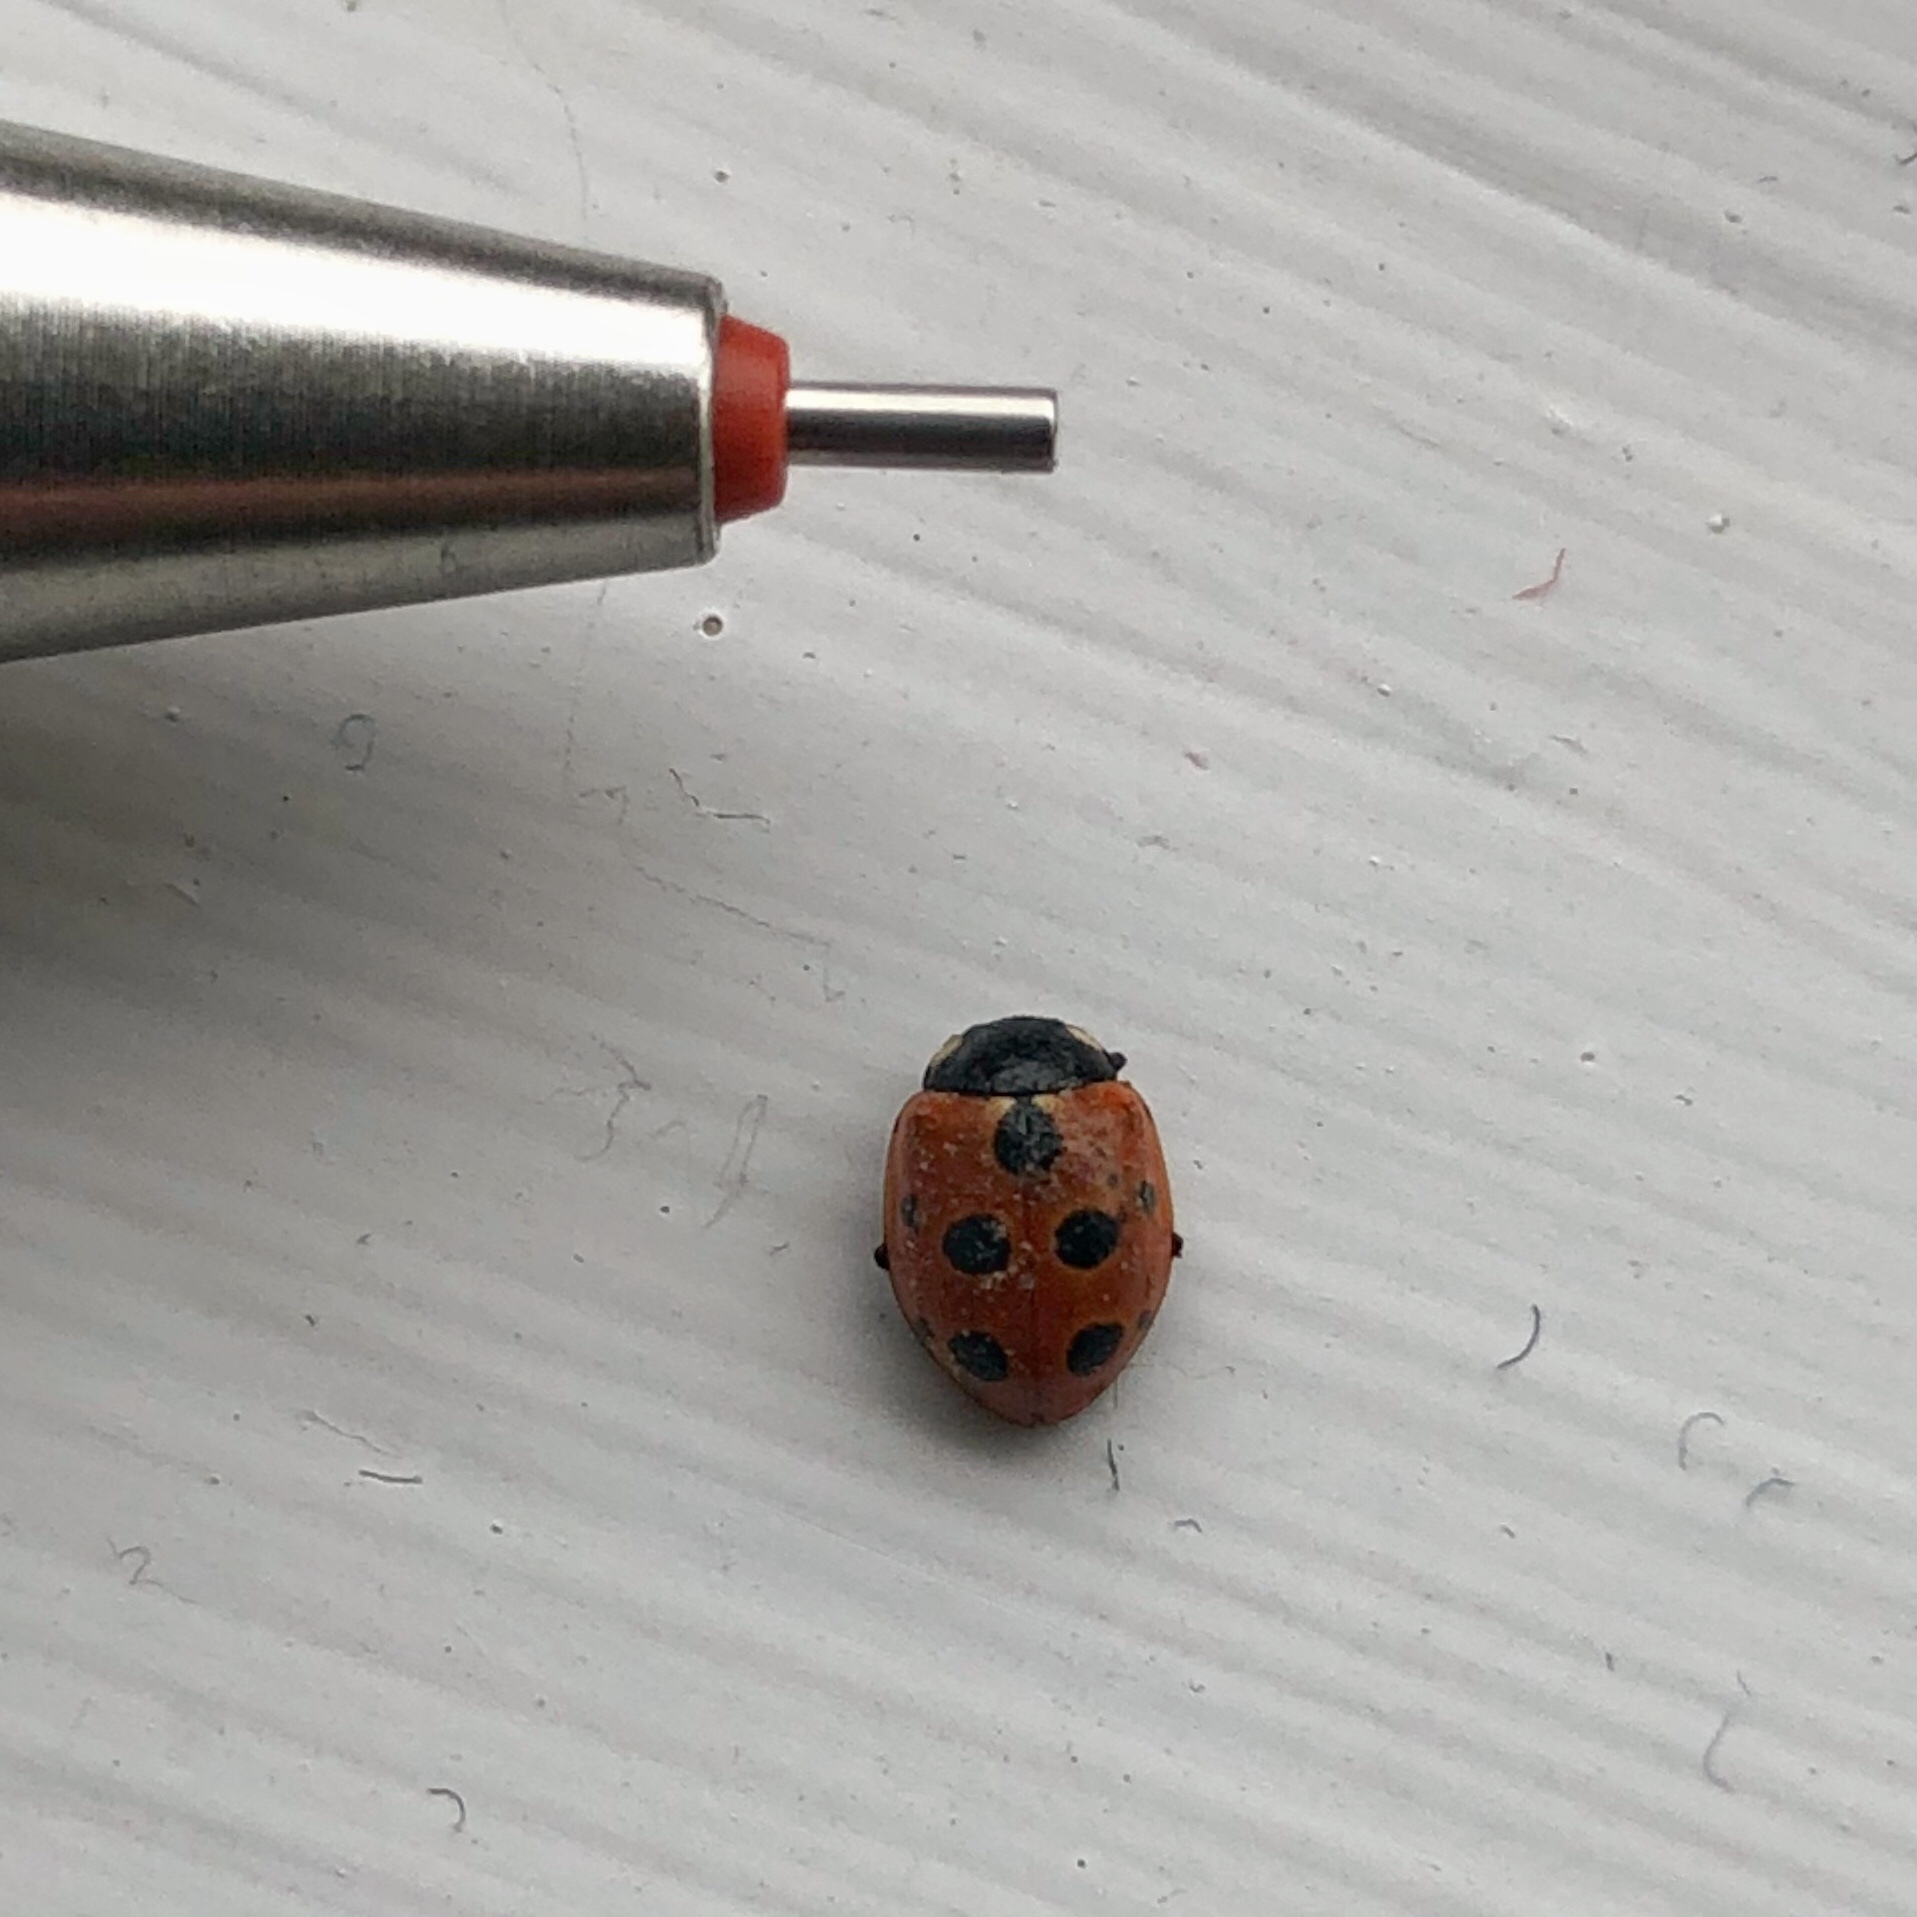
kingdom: Animalia
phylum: Arthropoda
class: Insecta
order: Coleoptera
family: Coccinellidae
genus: Coccinella
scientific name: Coccinella undecimpunctata
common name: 11-spot ladybird
